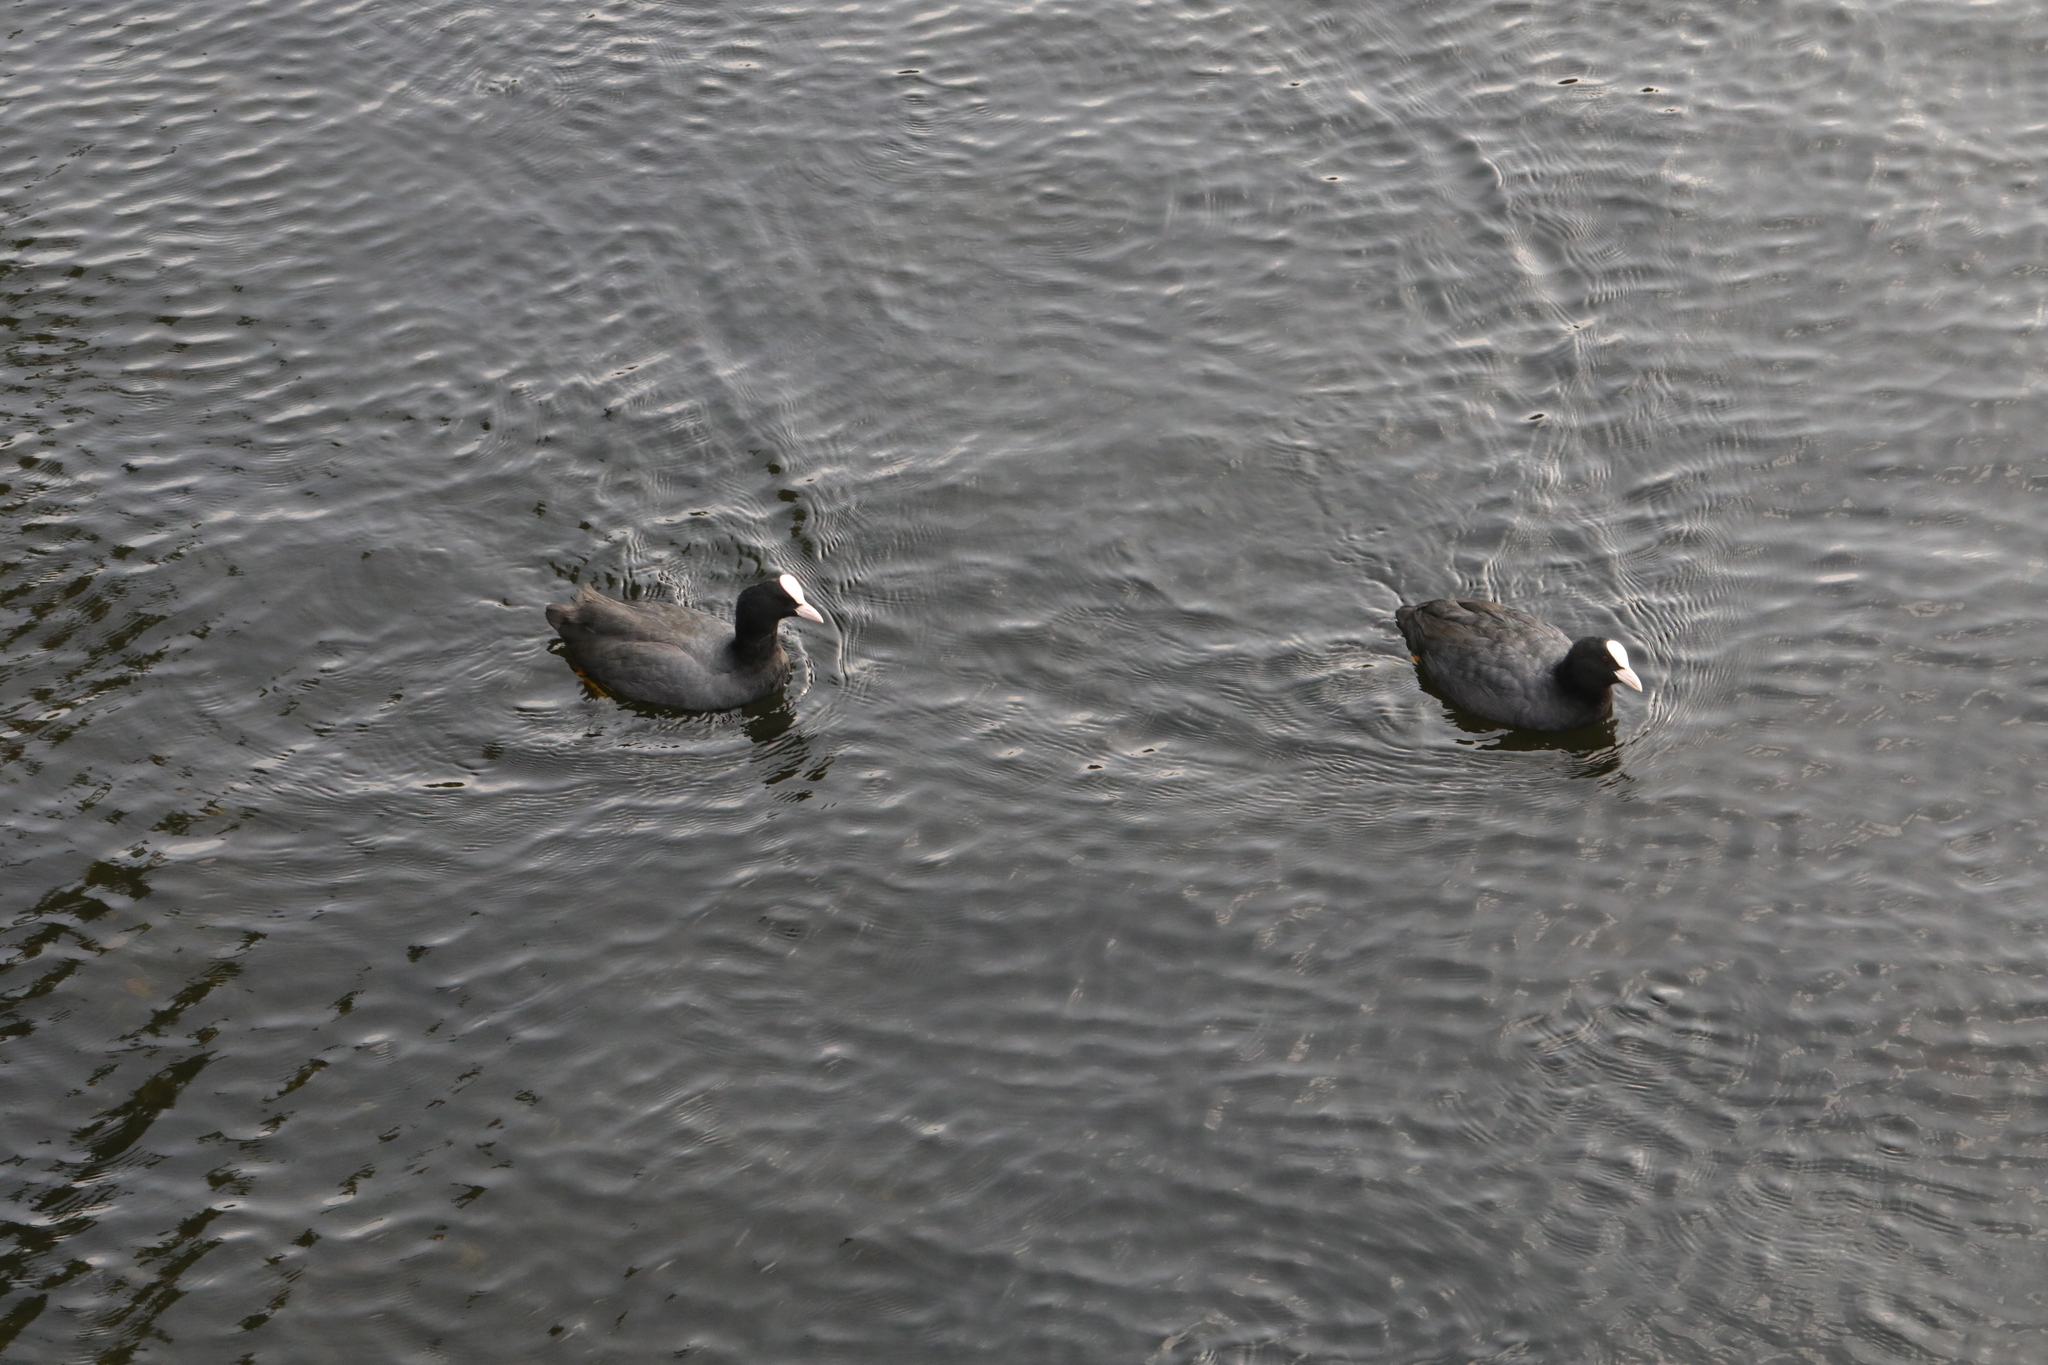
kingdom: Animalia
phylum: Chordata
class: Aves
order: Gruiformes
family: Rallidae
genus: Fulica
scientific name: Fulica atra
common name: Eurasian coot
